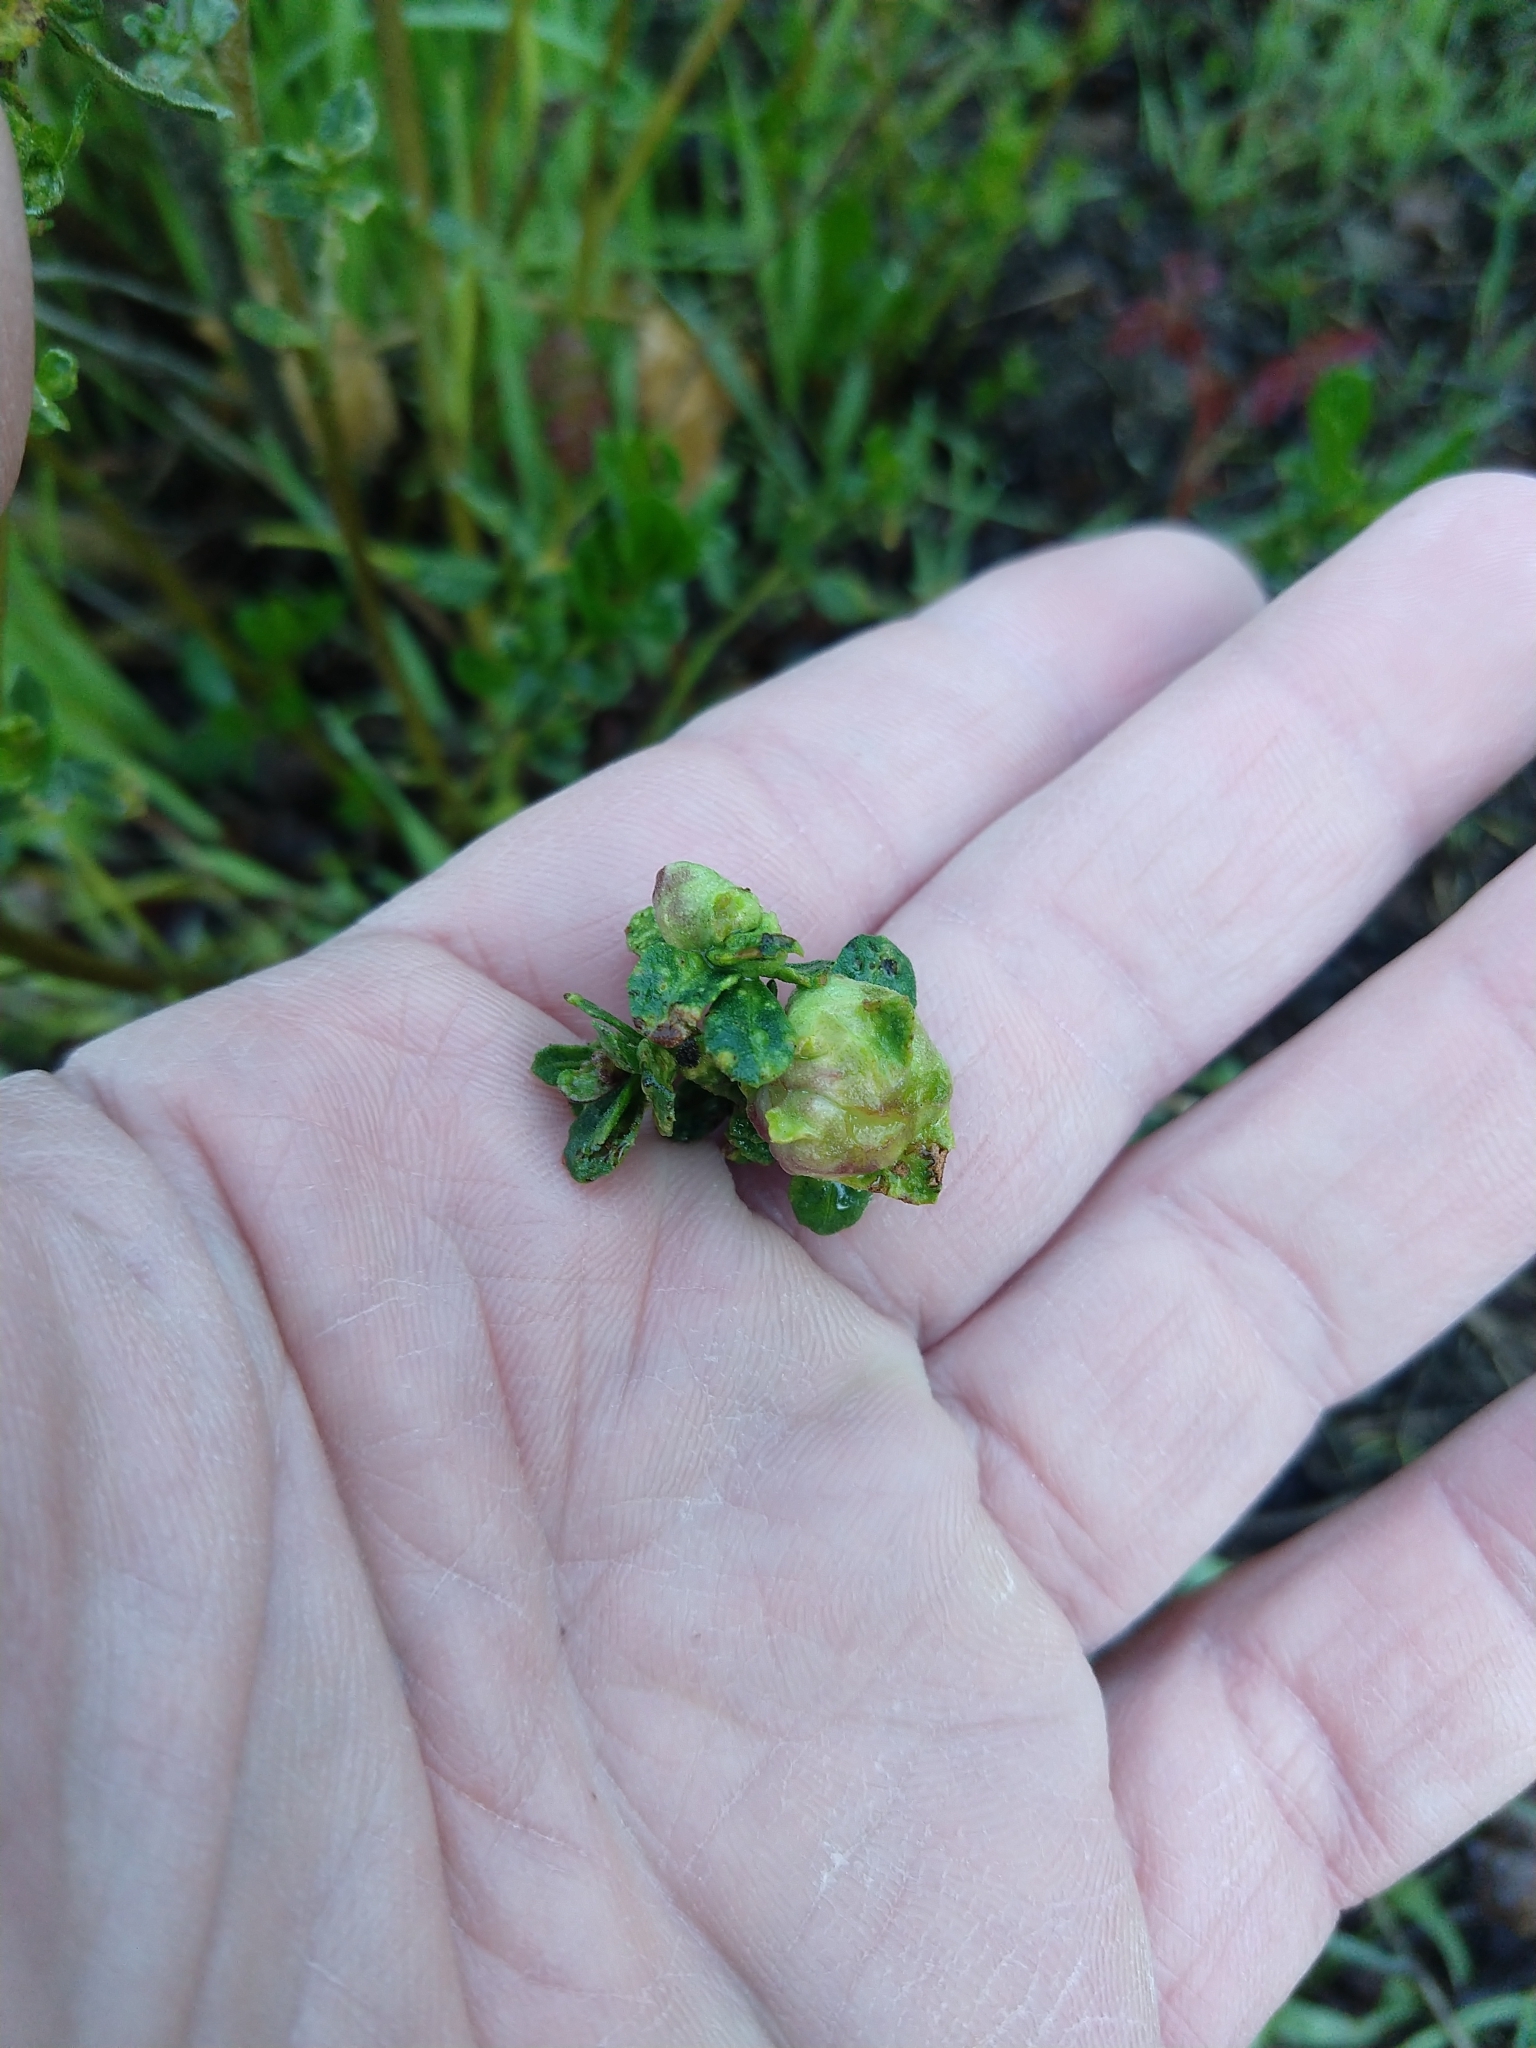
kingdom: Animalia
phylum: Arthropoda
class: Arachnida
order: Trombidiformes
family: Eriophyidae
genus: Aceria
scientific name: Aceria
